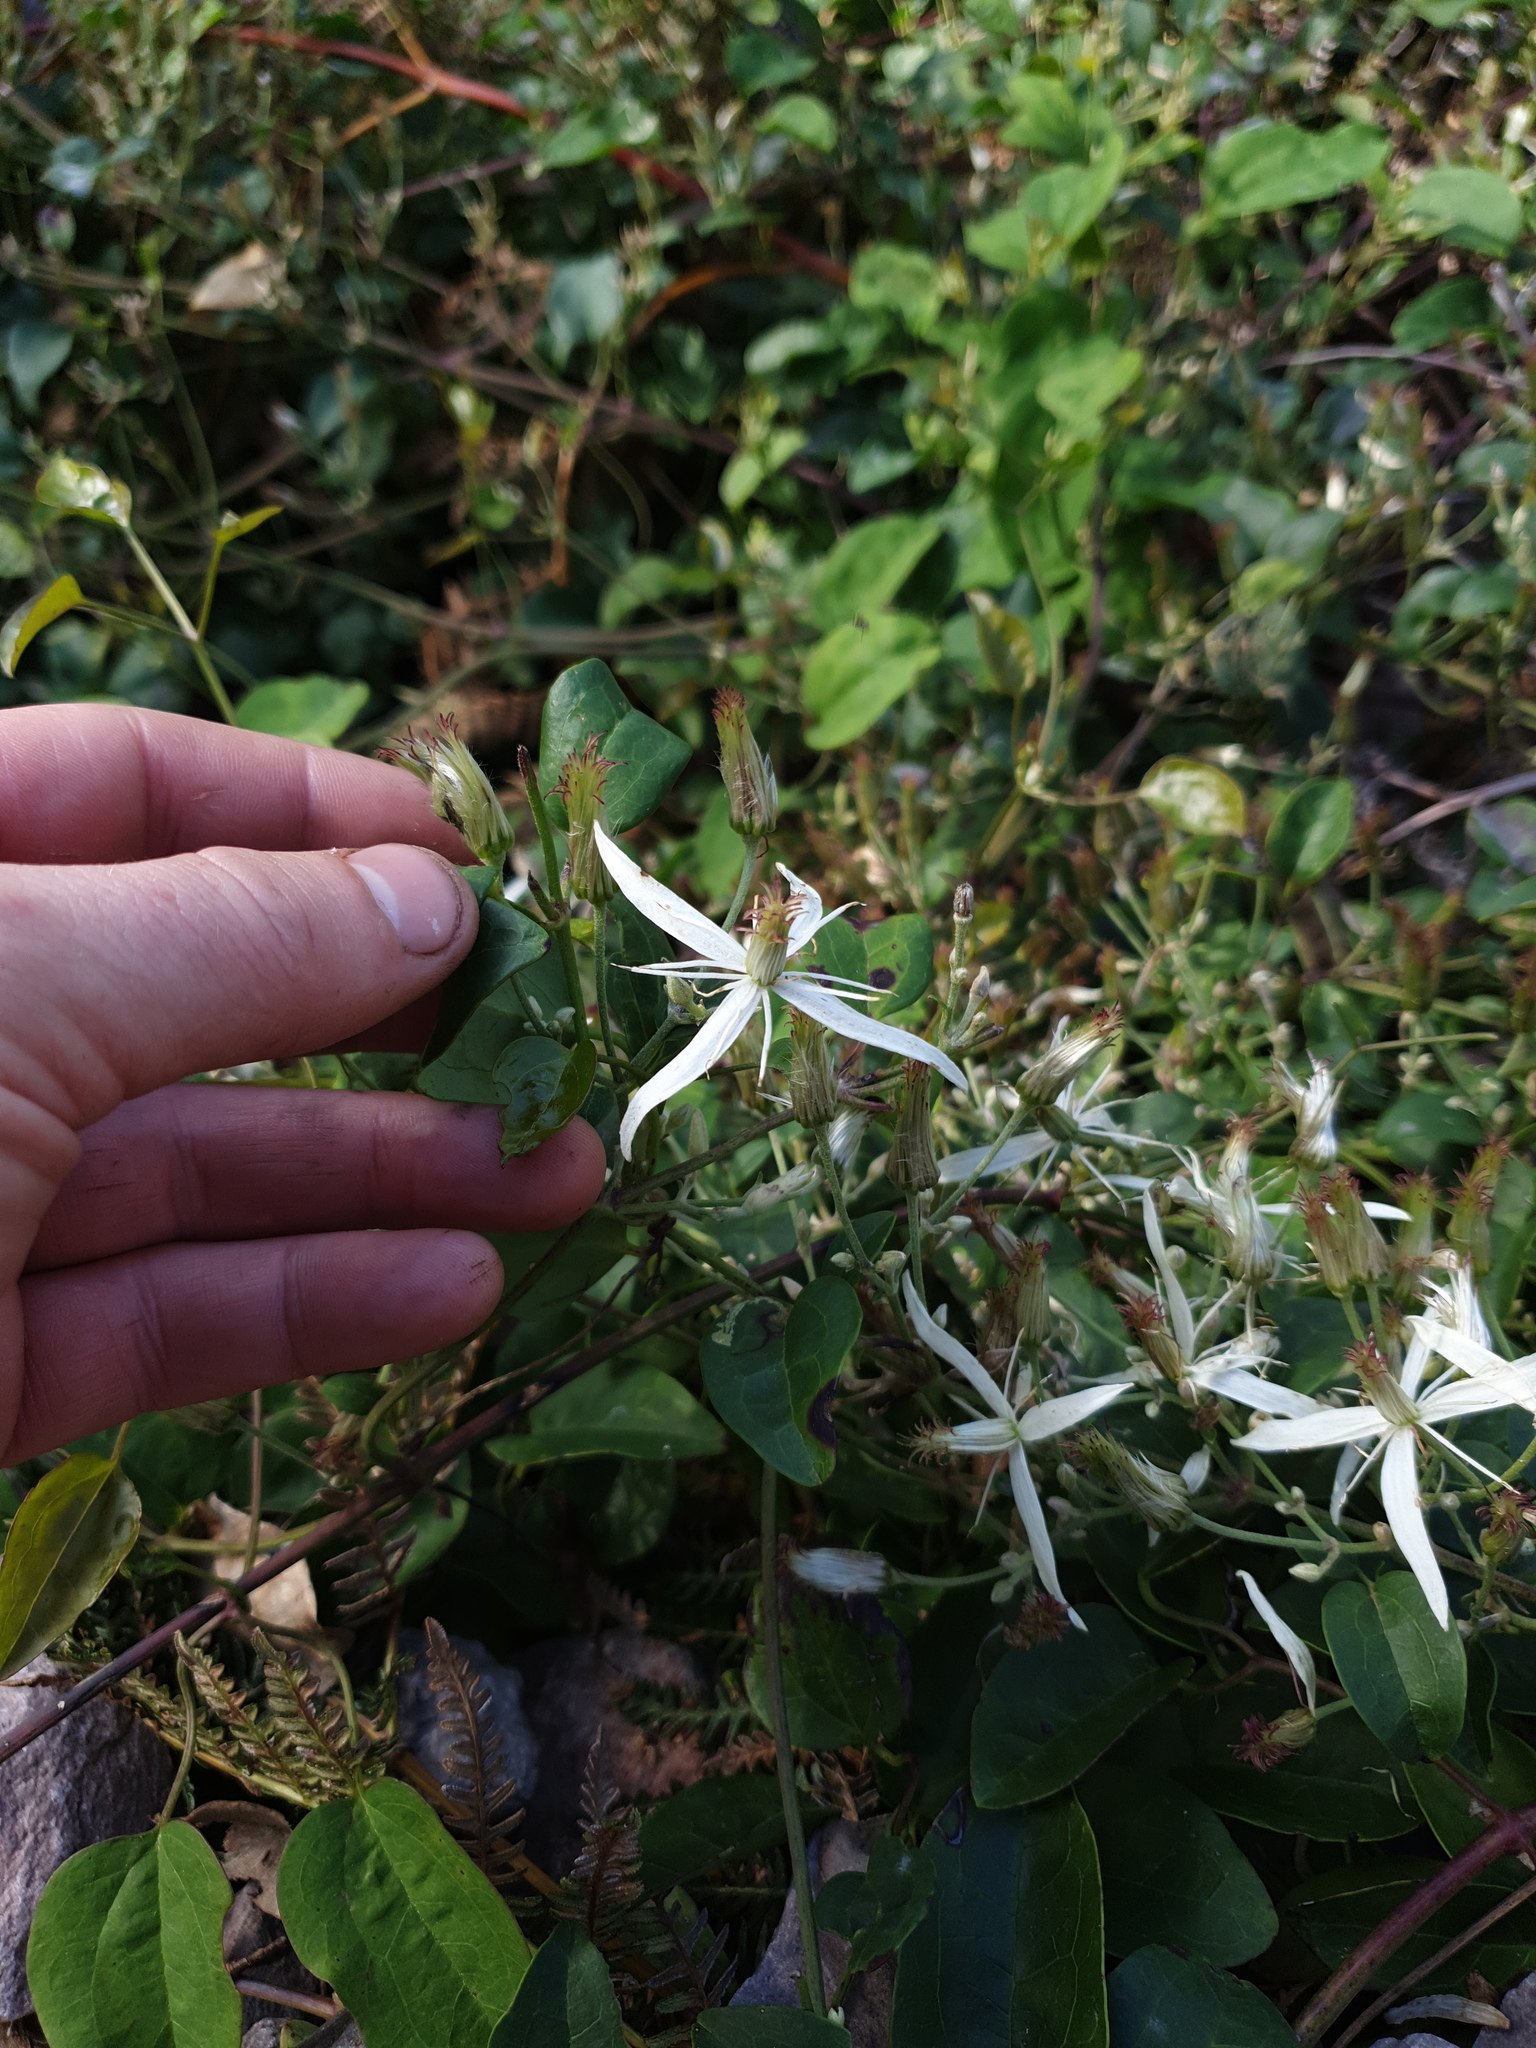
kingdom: Plantae
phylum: Tracheophyta
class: Magnoliopsida
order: Ranunculales
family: Ranunculaceae
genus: Clematis
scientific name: Clematis pubescens
